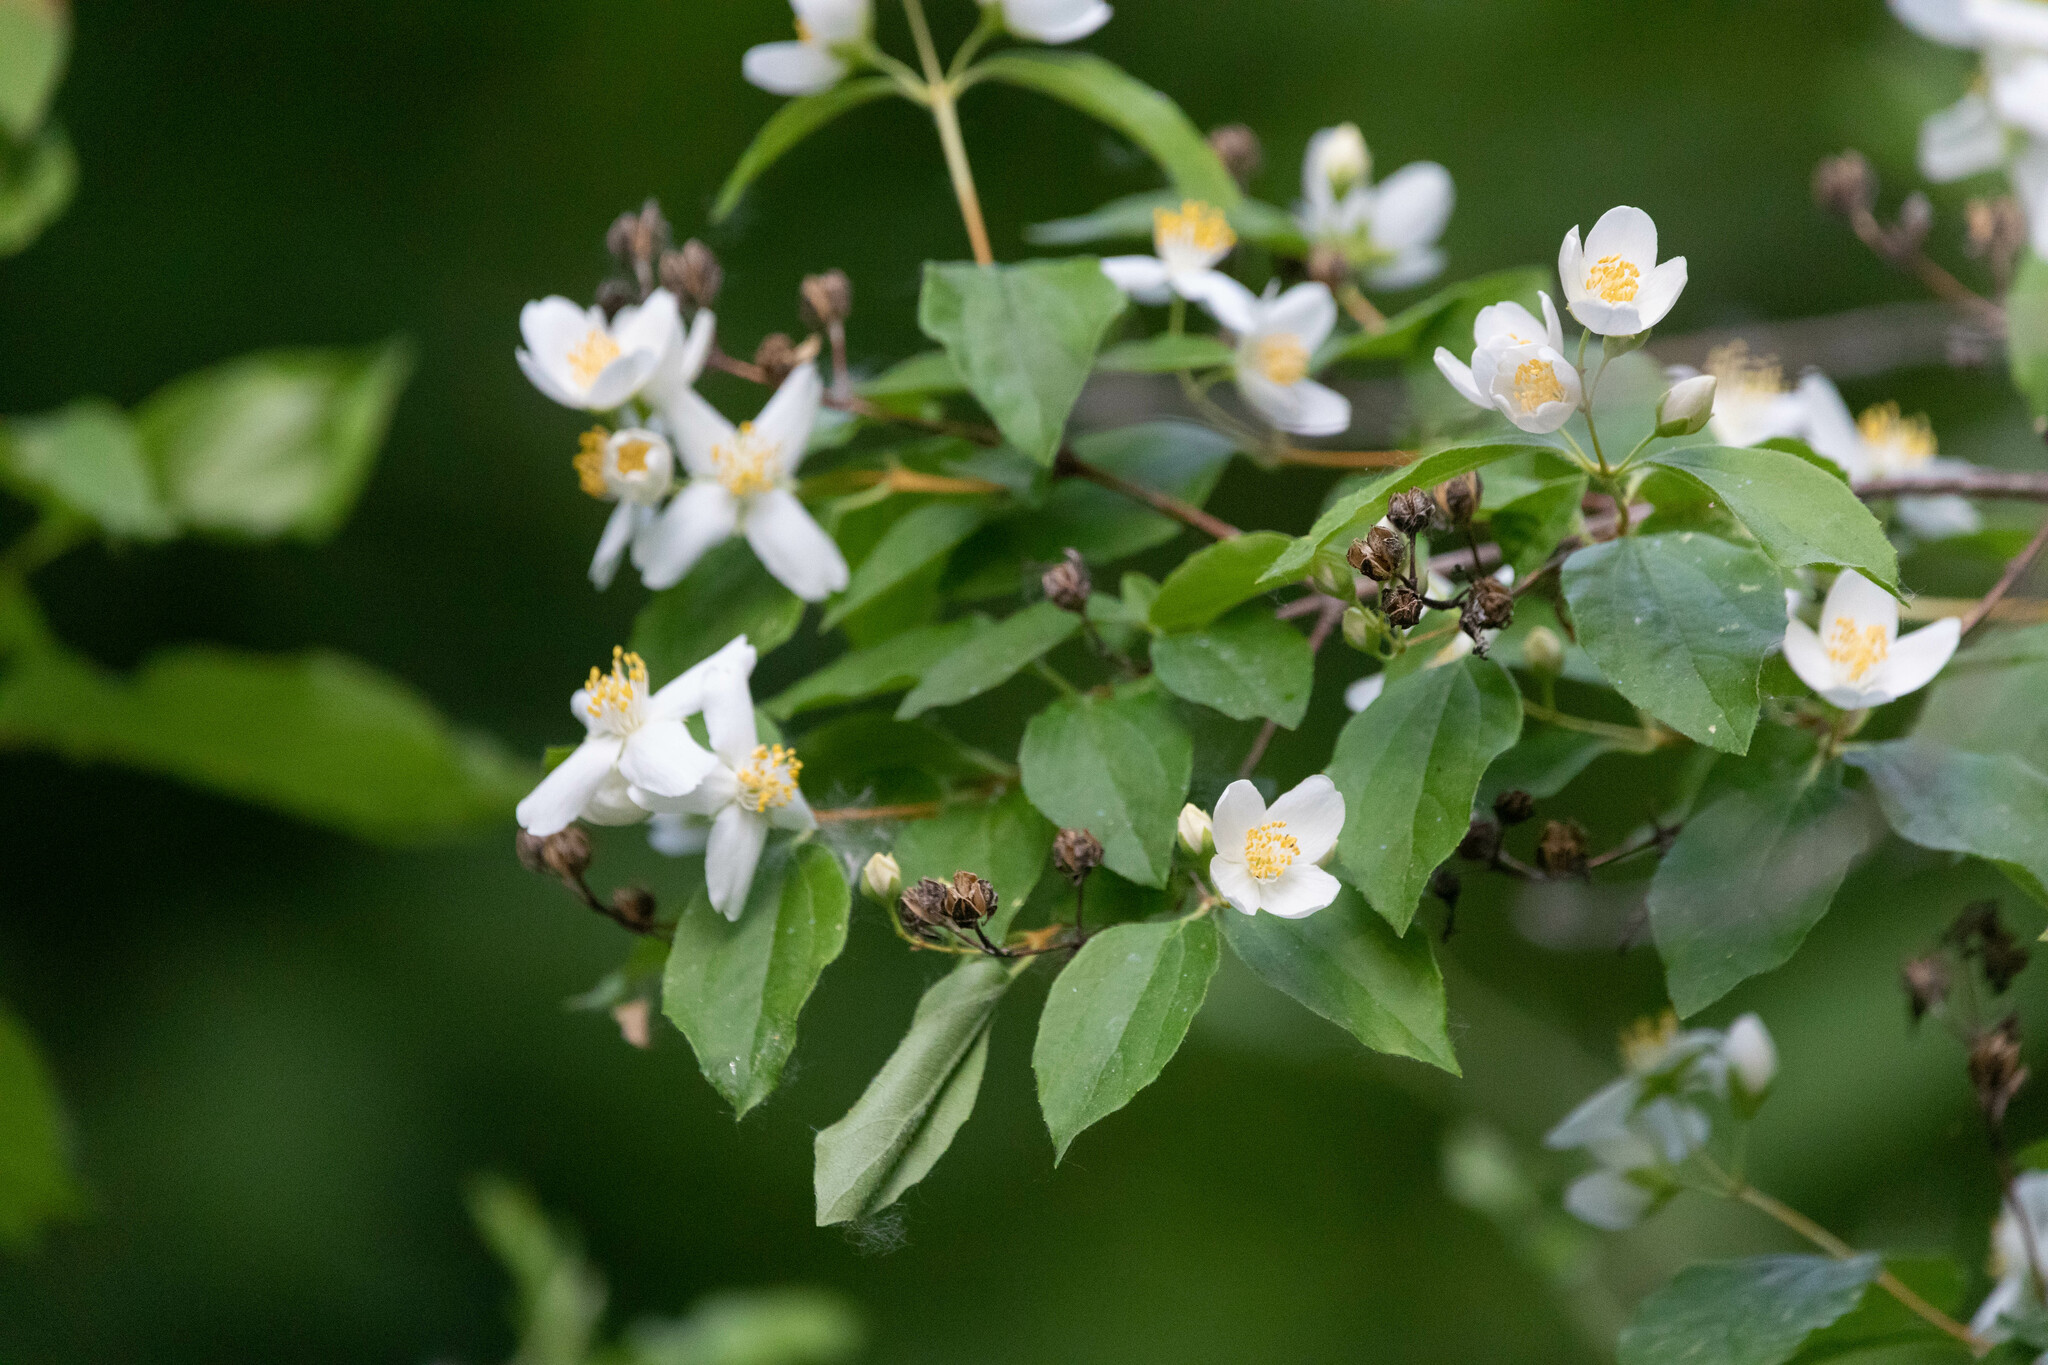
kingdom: Plantae
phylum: Tracheophyta
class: Magnoliopsida
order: Cornales
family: Hydrangeaceae
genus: Philadelphus
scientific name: Philadelphus lewisii
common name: Lewis's mock orange
